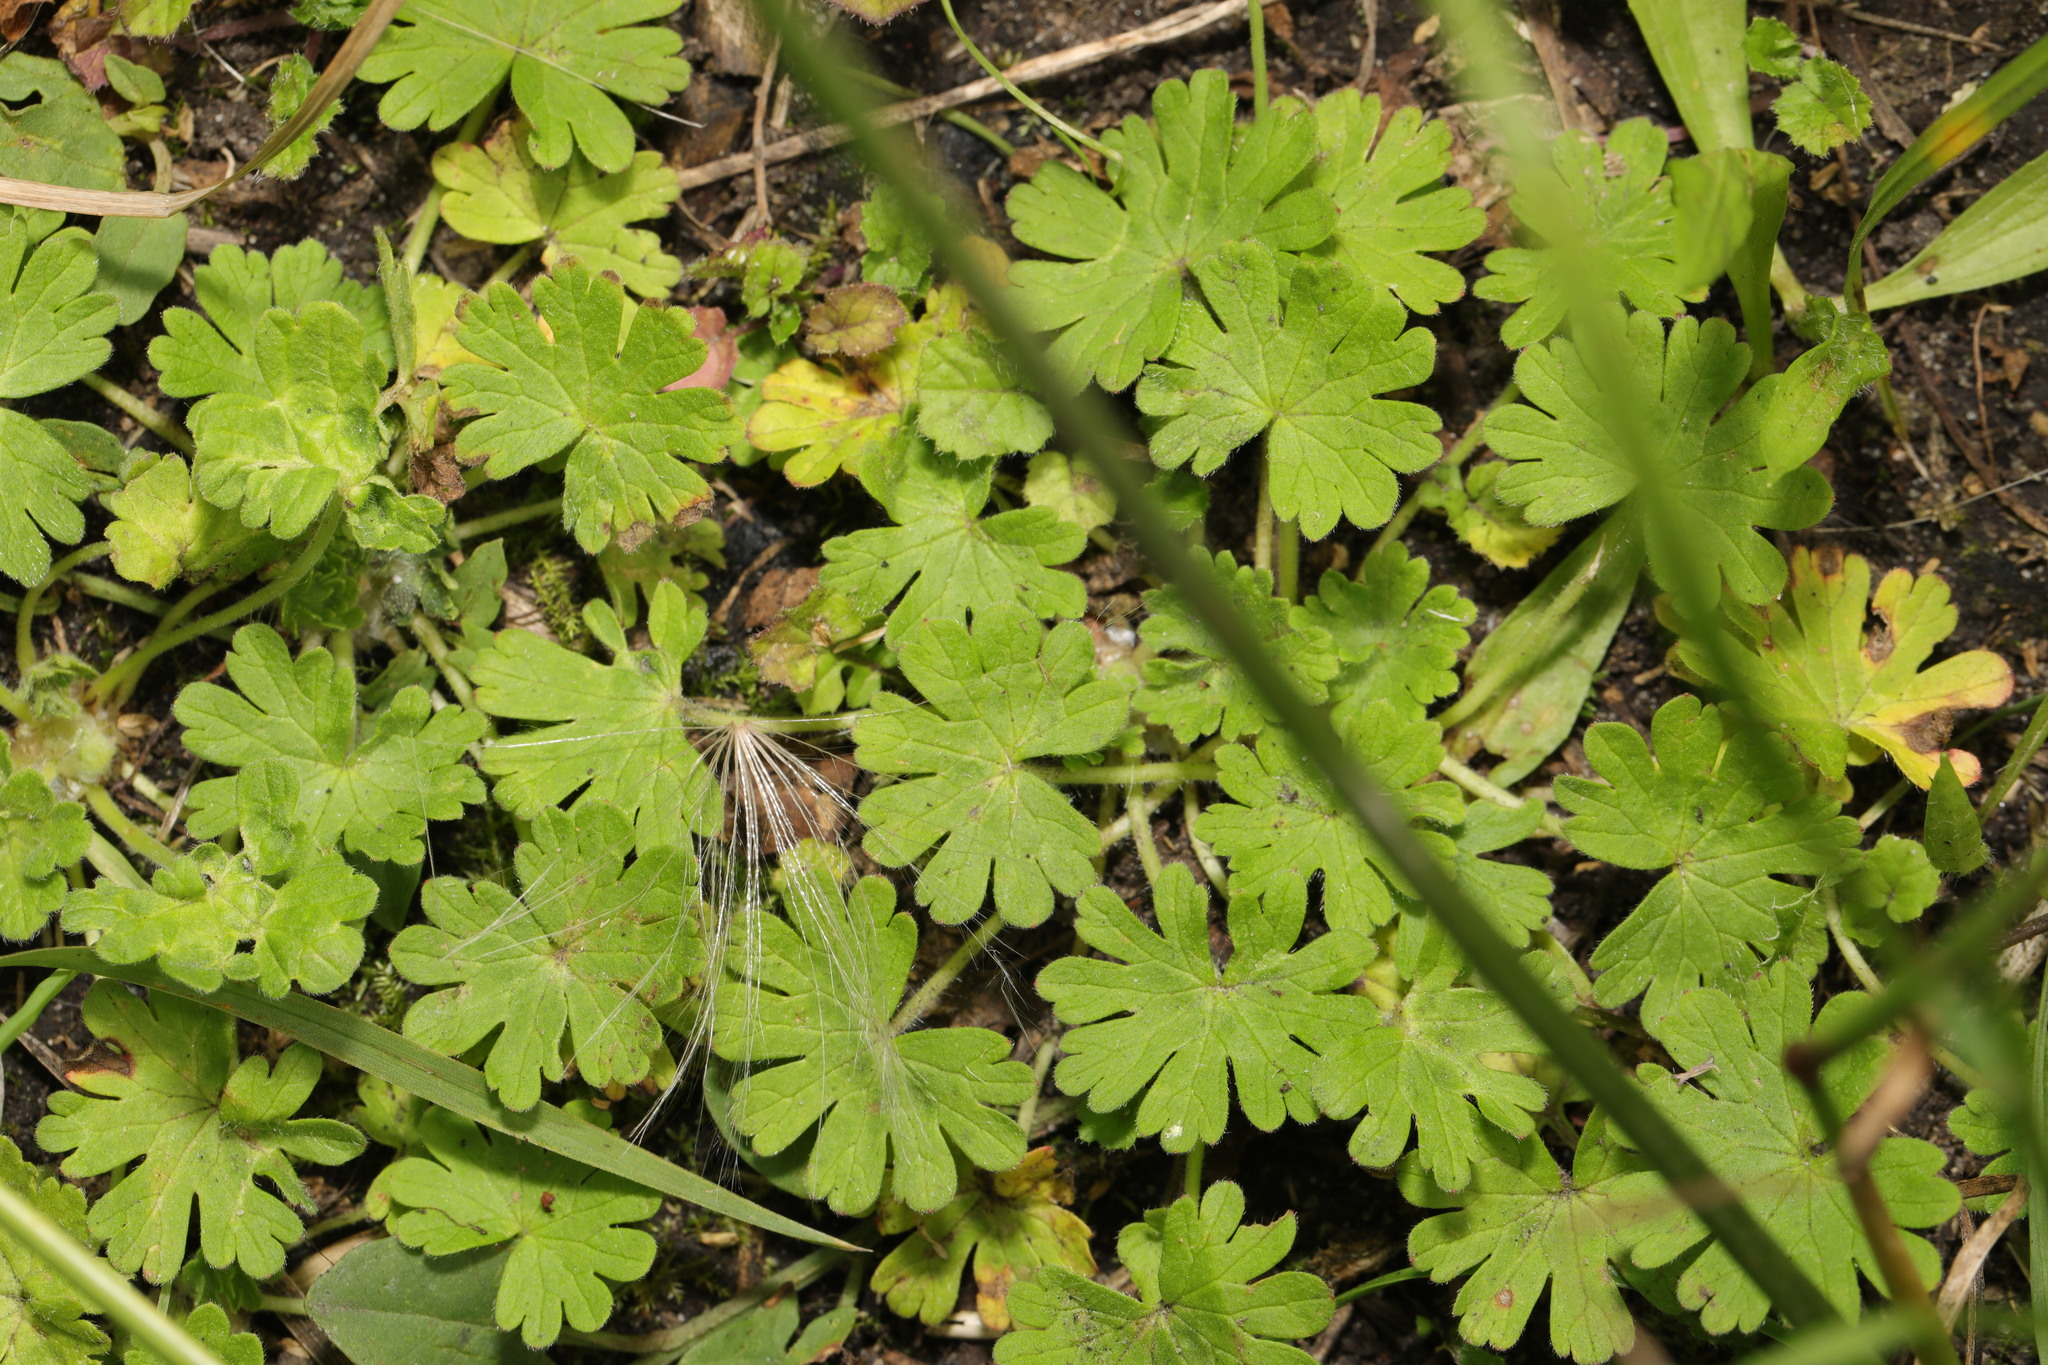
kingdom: Plantae
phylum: Tracheophyta
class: Magnoliopsida
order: Geraniales
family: Geraniaceae
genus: Geranium
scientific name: Geranium molle
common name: Dove's-foot crane's-bill
